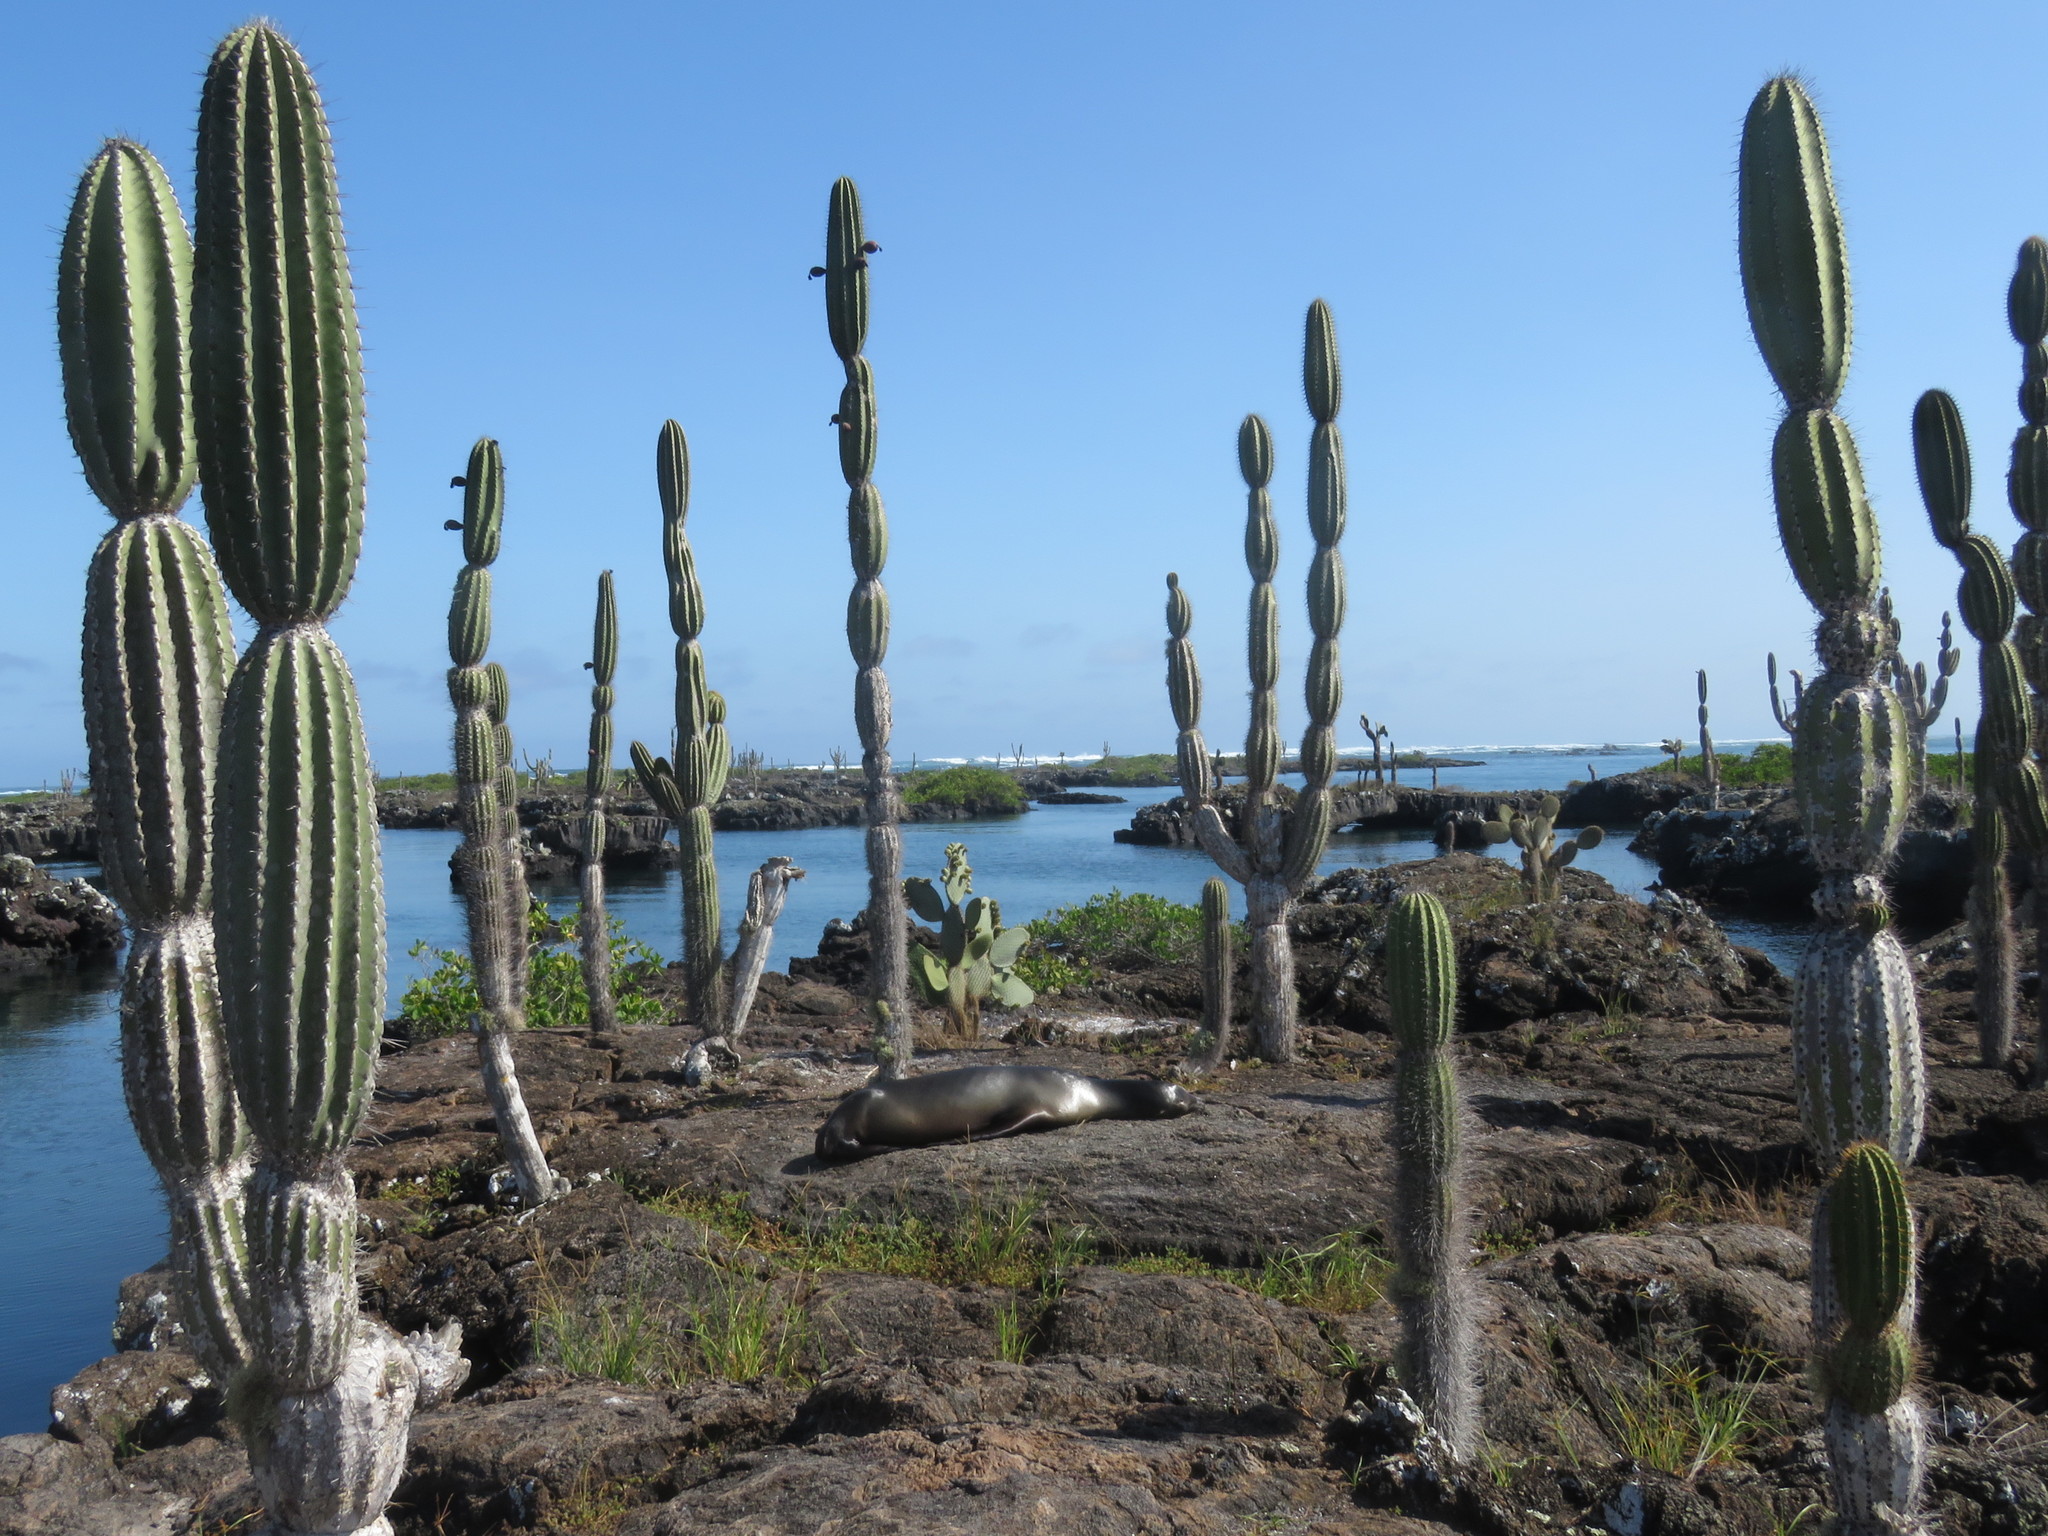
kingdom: Animalia
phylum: Chordata
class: Mammalia
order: Carnivora
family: Otariidae
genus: Zalophus
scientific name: Zalophus wollebaeki
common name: Galapagos sea lion
